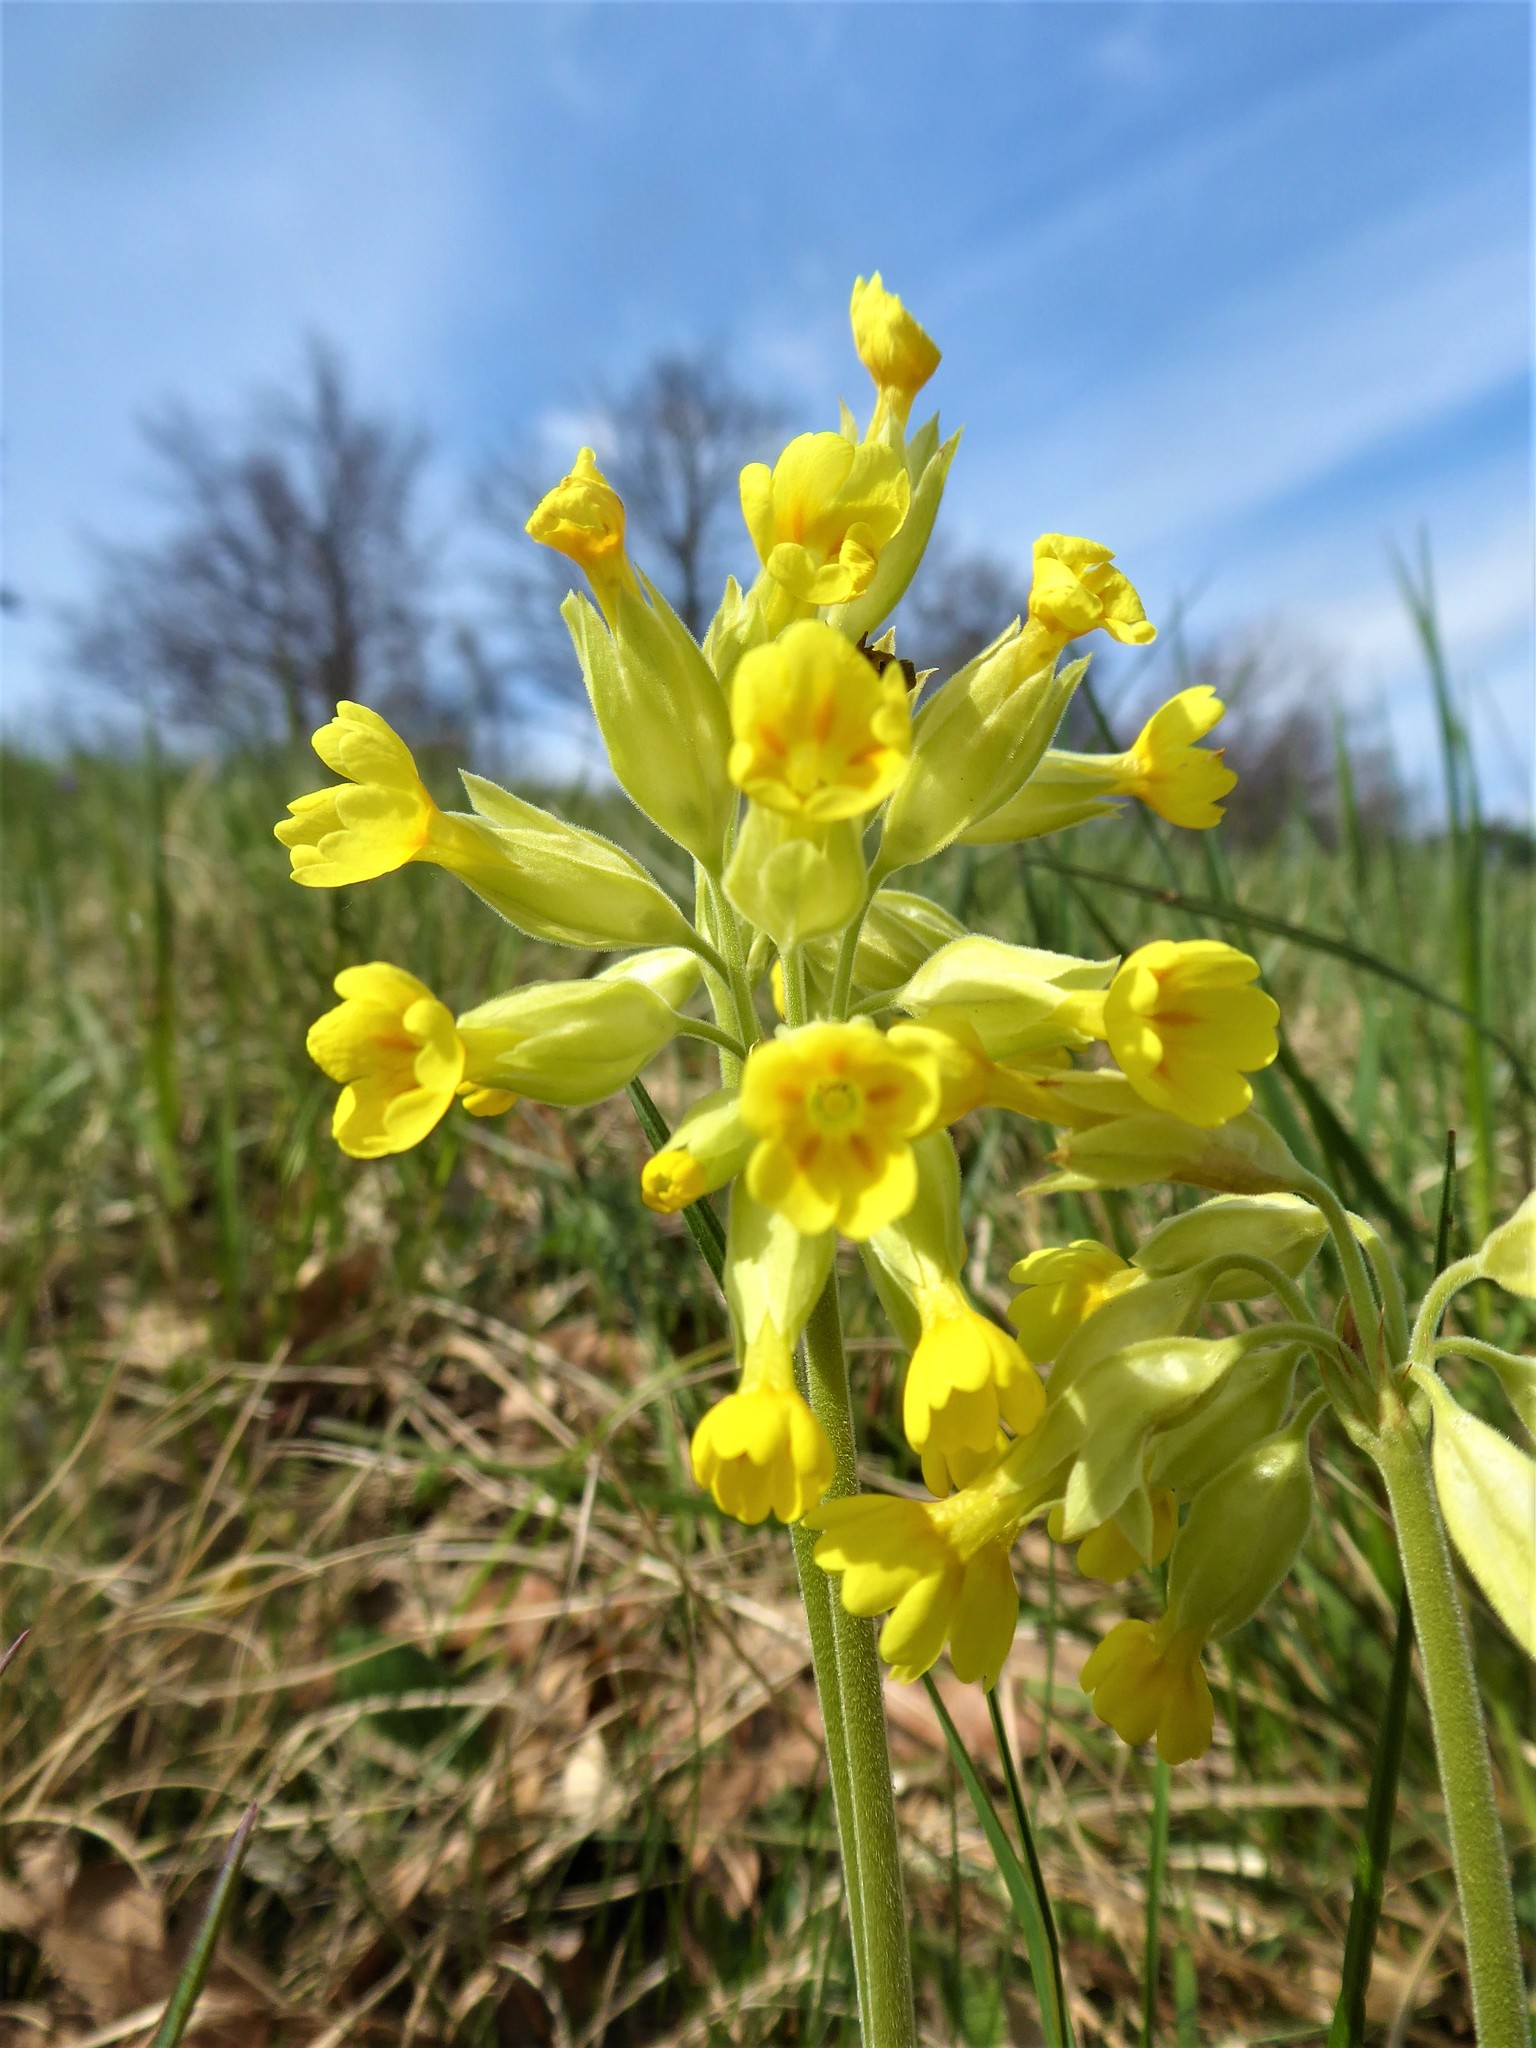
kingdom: Plantae
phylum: Tracheophyta
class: Magnoliopsida
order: Ericales
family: Primulaceae
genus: Primula
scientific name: Primula veris
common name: Cowslip
